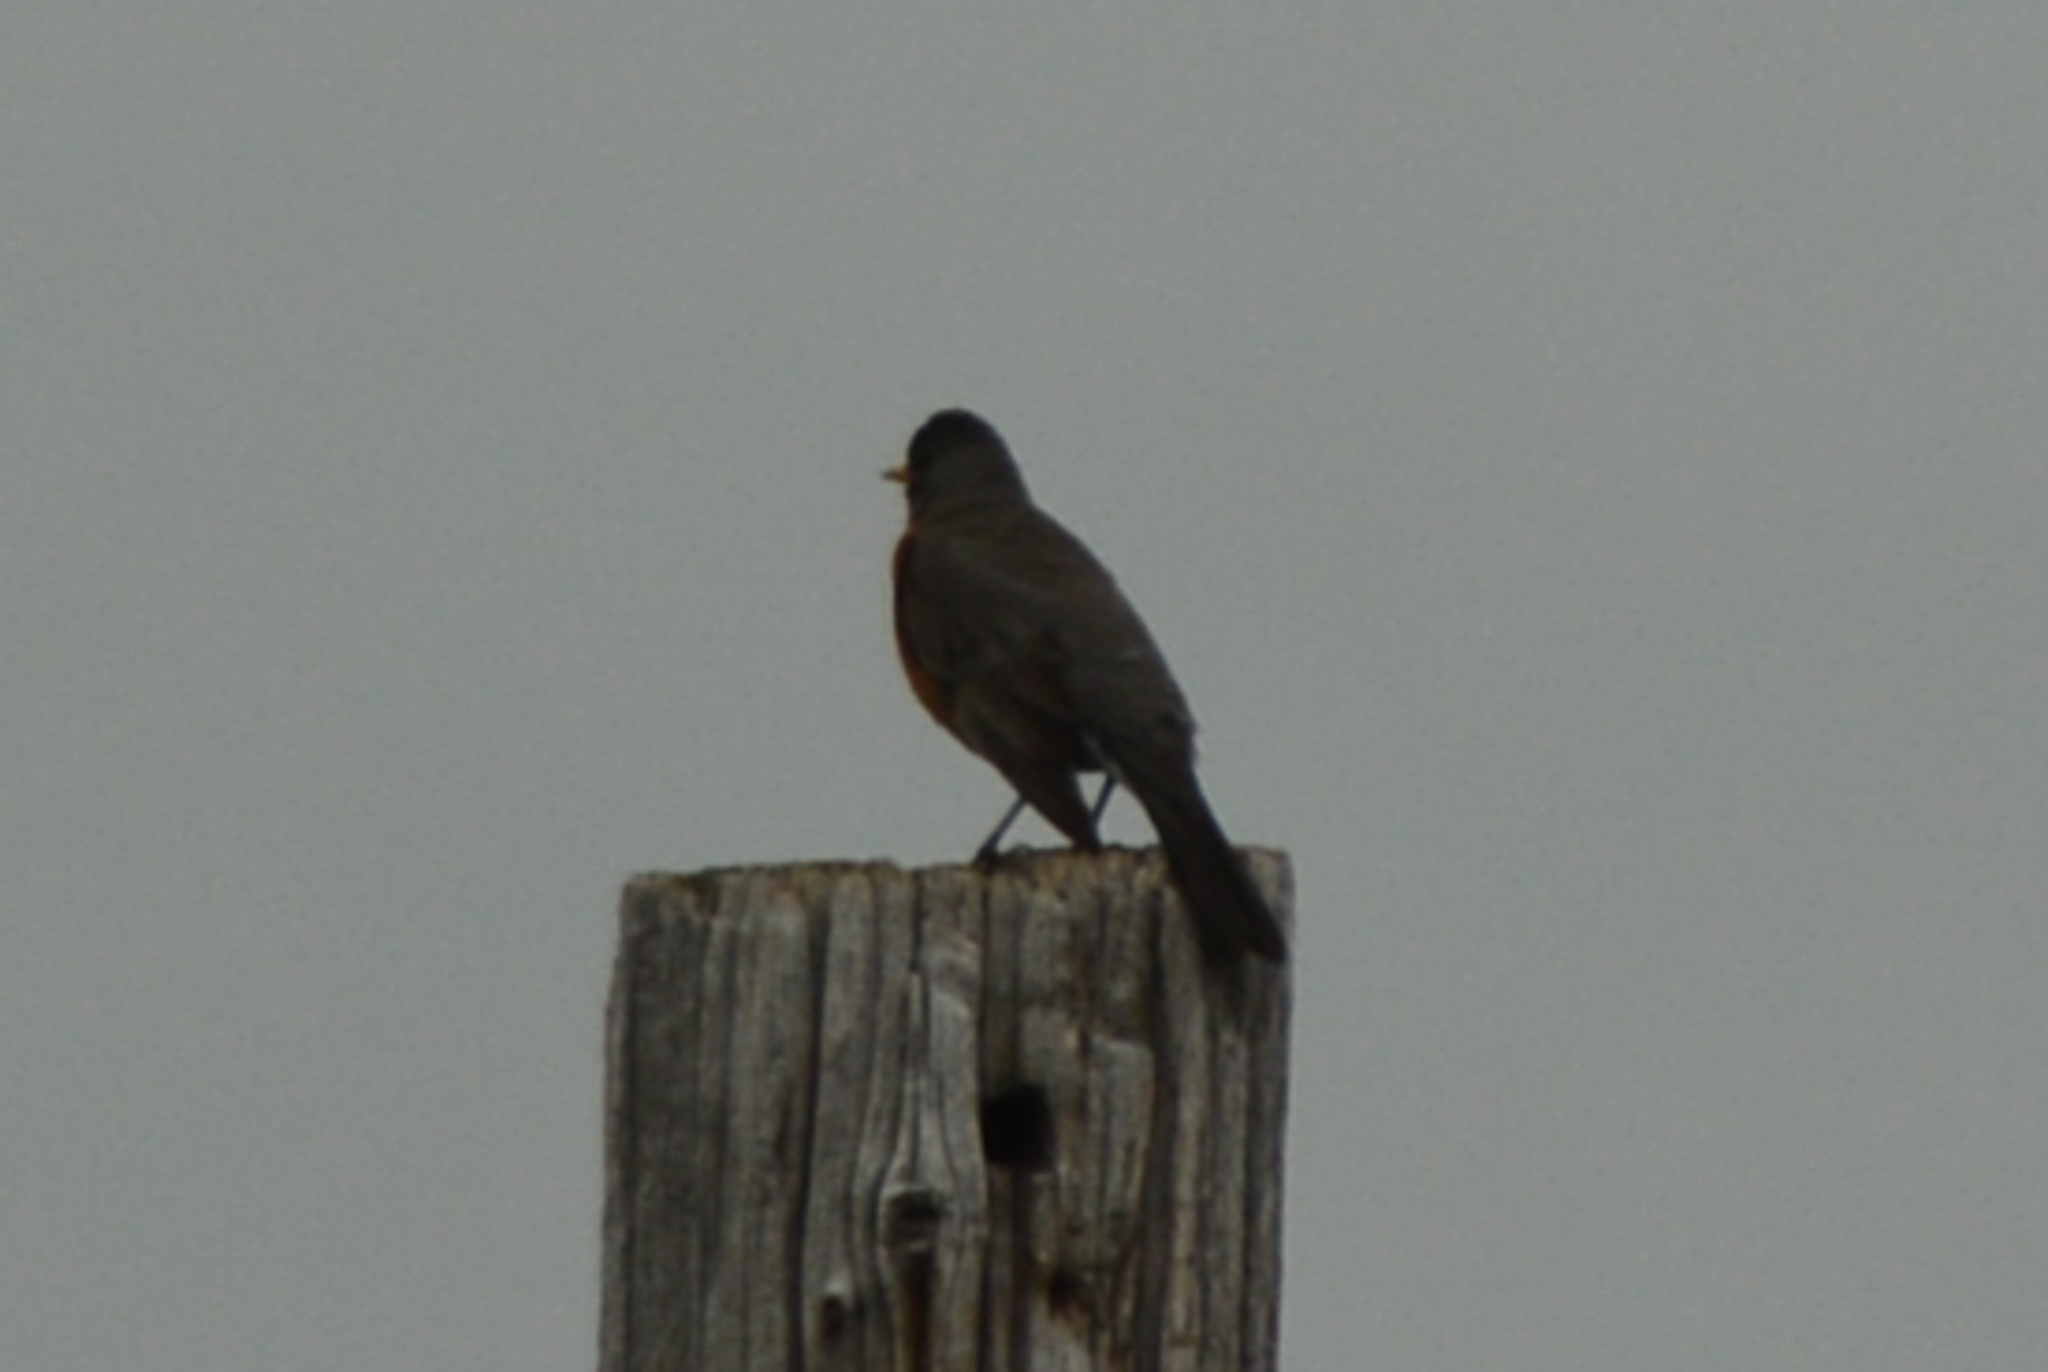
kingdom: Animalia
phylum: Chordata
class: Aves
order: Passeriformes
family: Turdidae
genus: Turdus
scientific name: Turdus migratorius
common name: American robin
